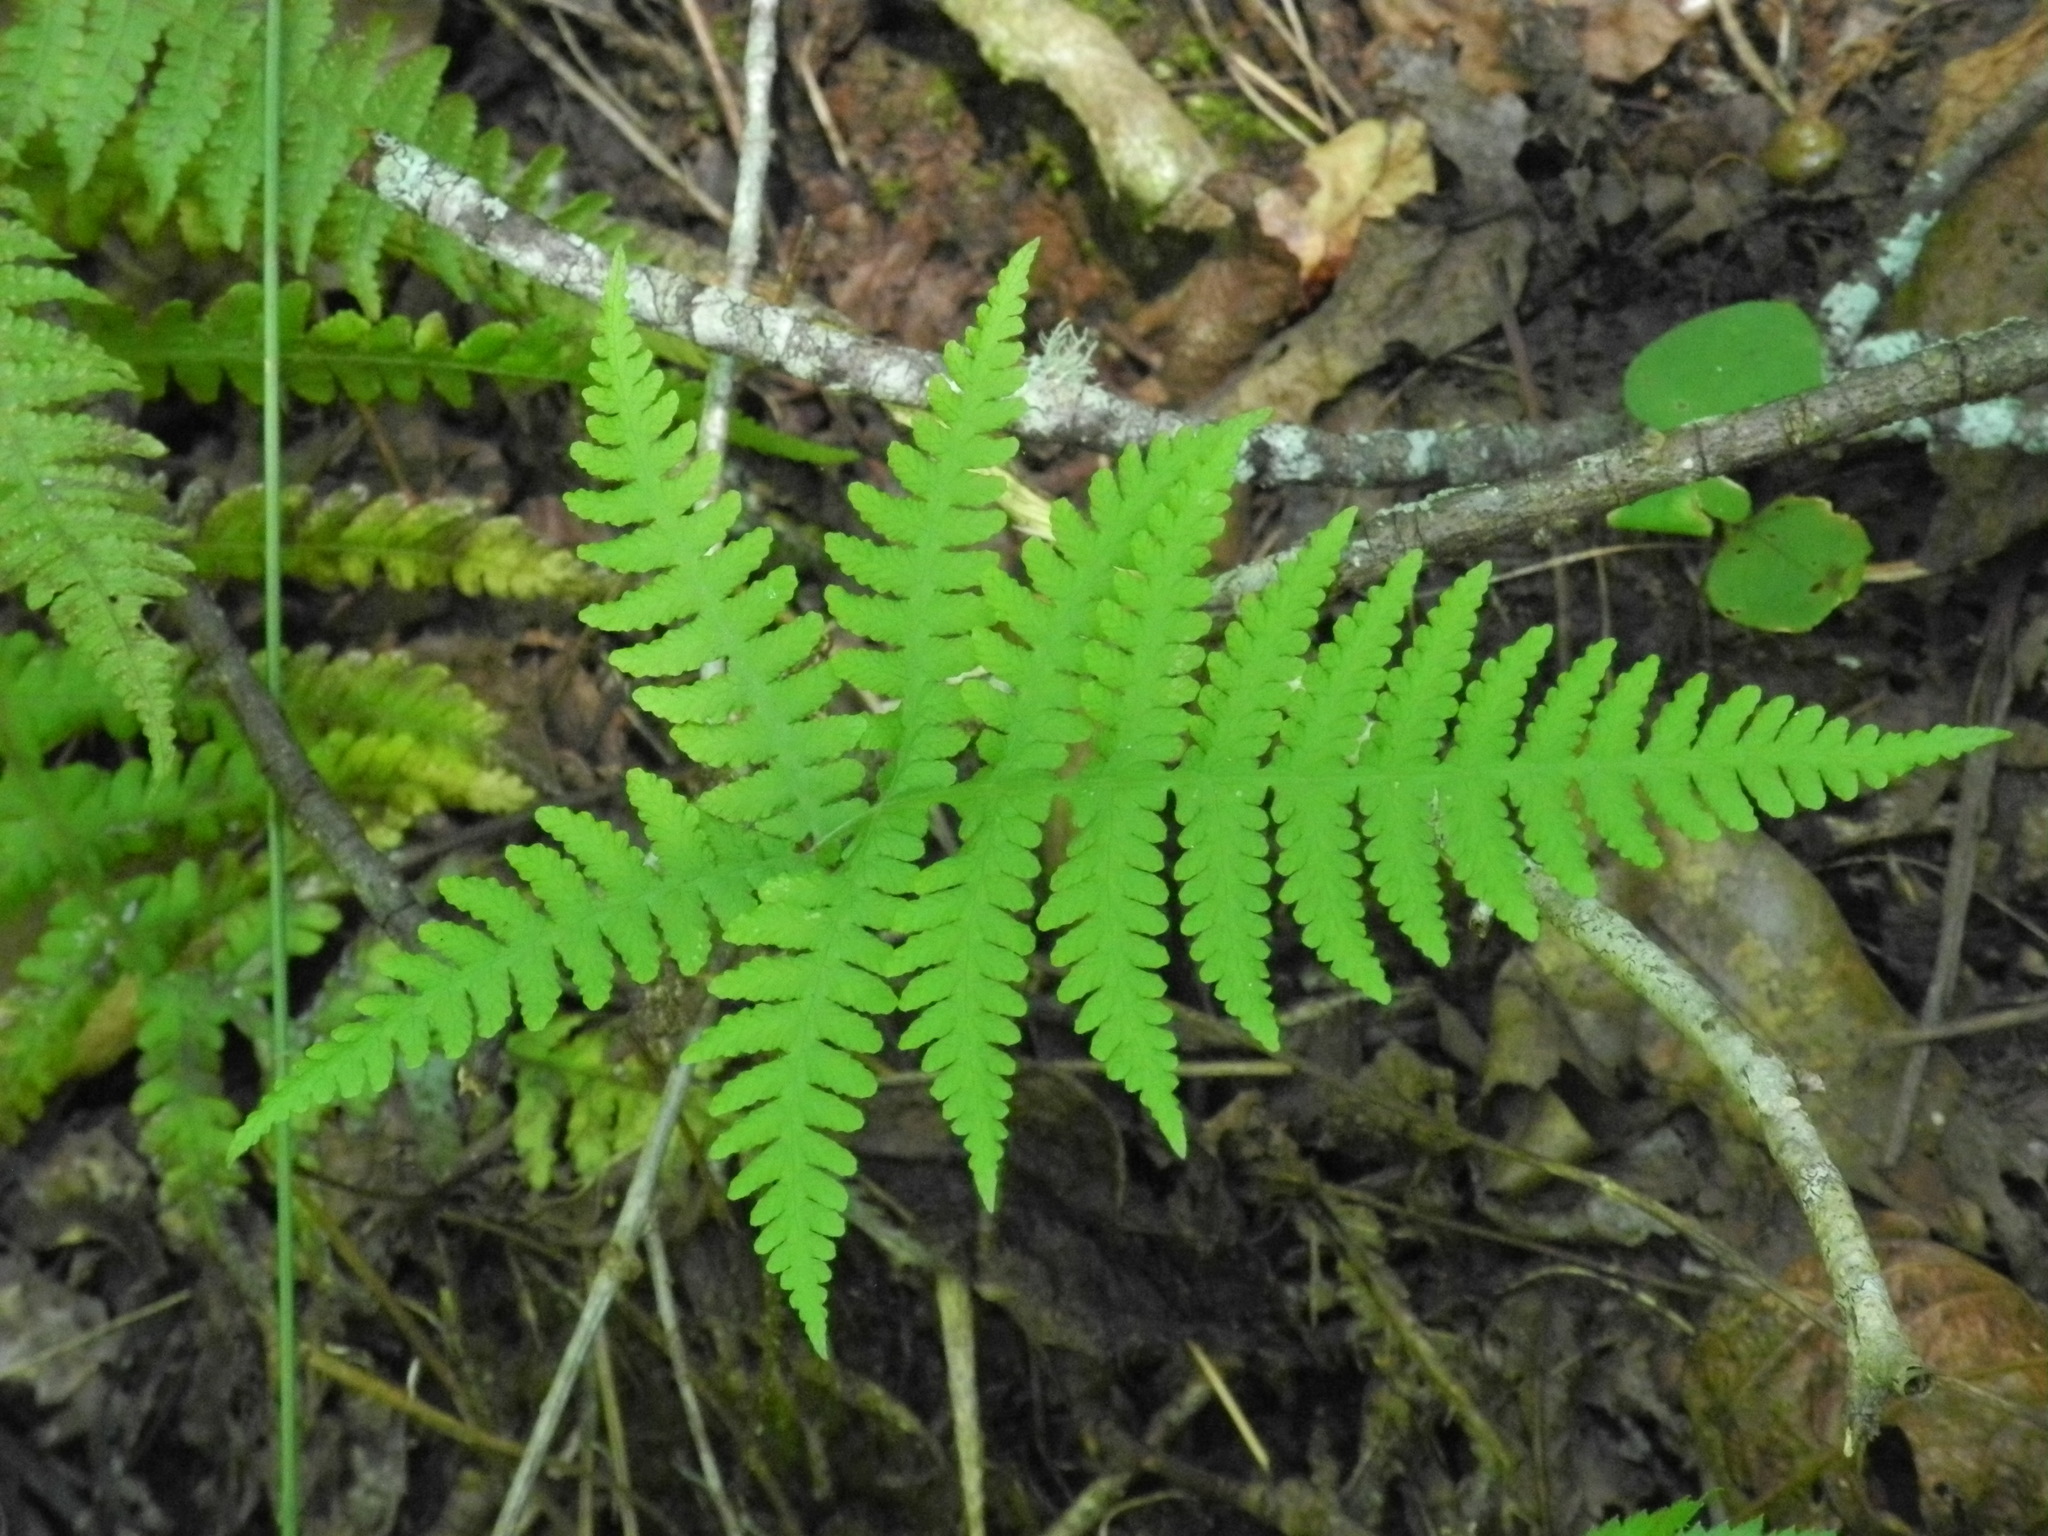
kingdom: Plantae
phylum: Tracheophyta
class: Polypodiopsida
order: Polypodiales
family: Thelypteridaceae
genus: Phegopteris
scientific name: Phegopteris hexagonoptera
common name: Broad beech fern
